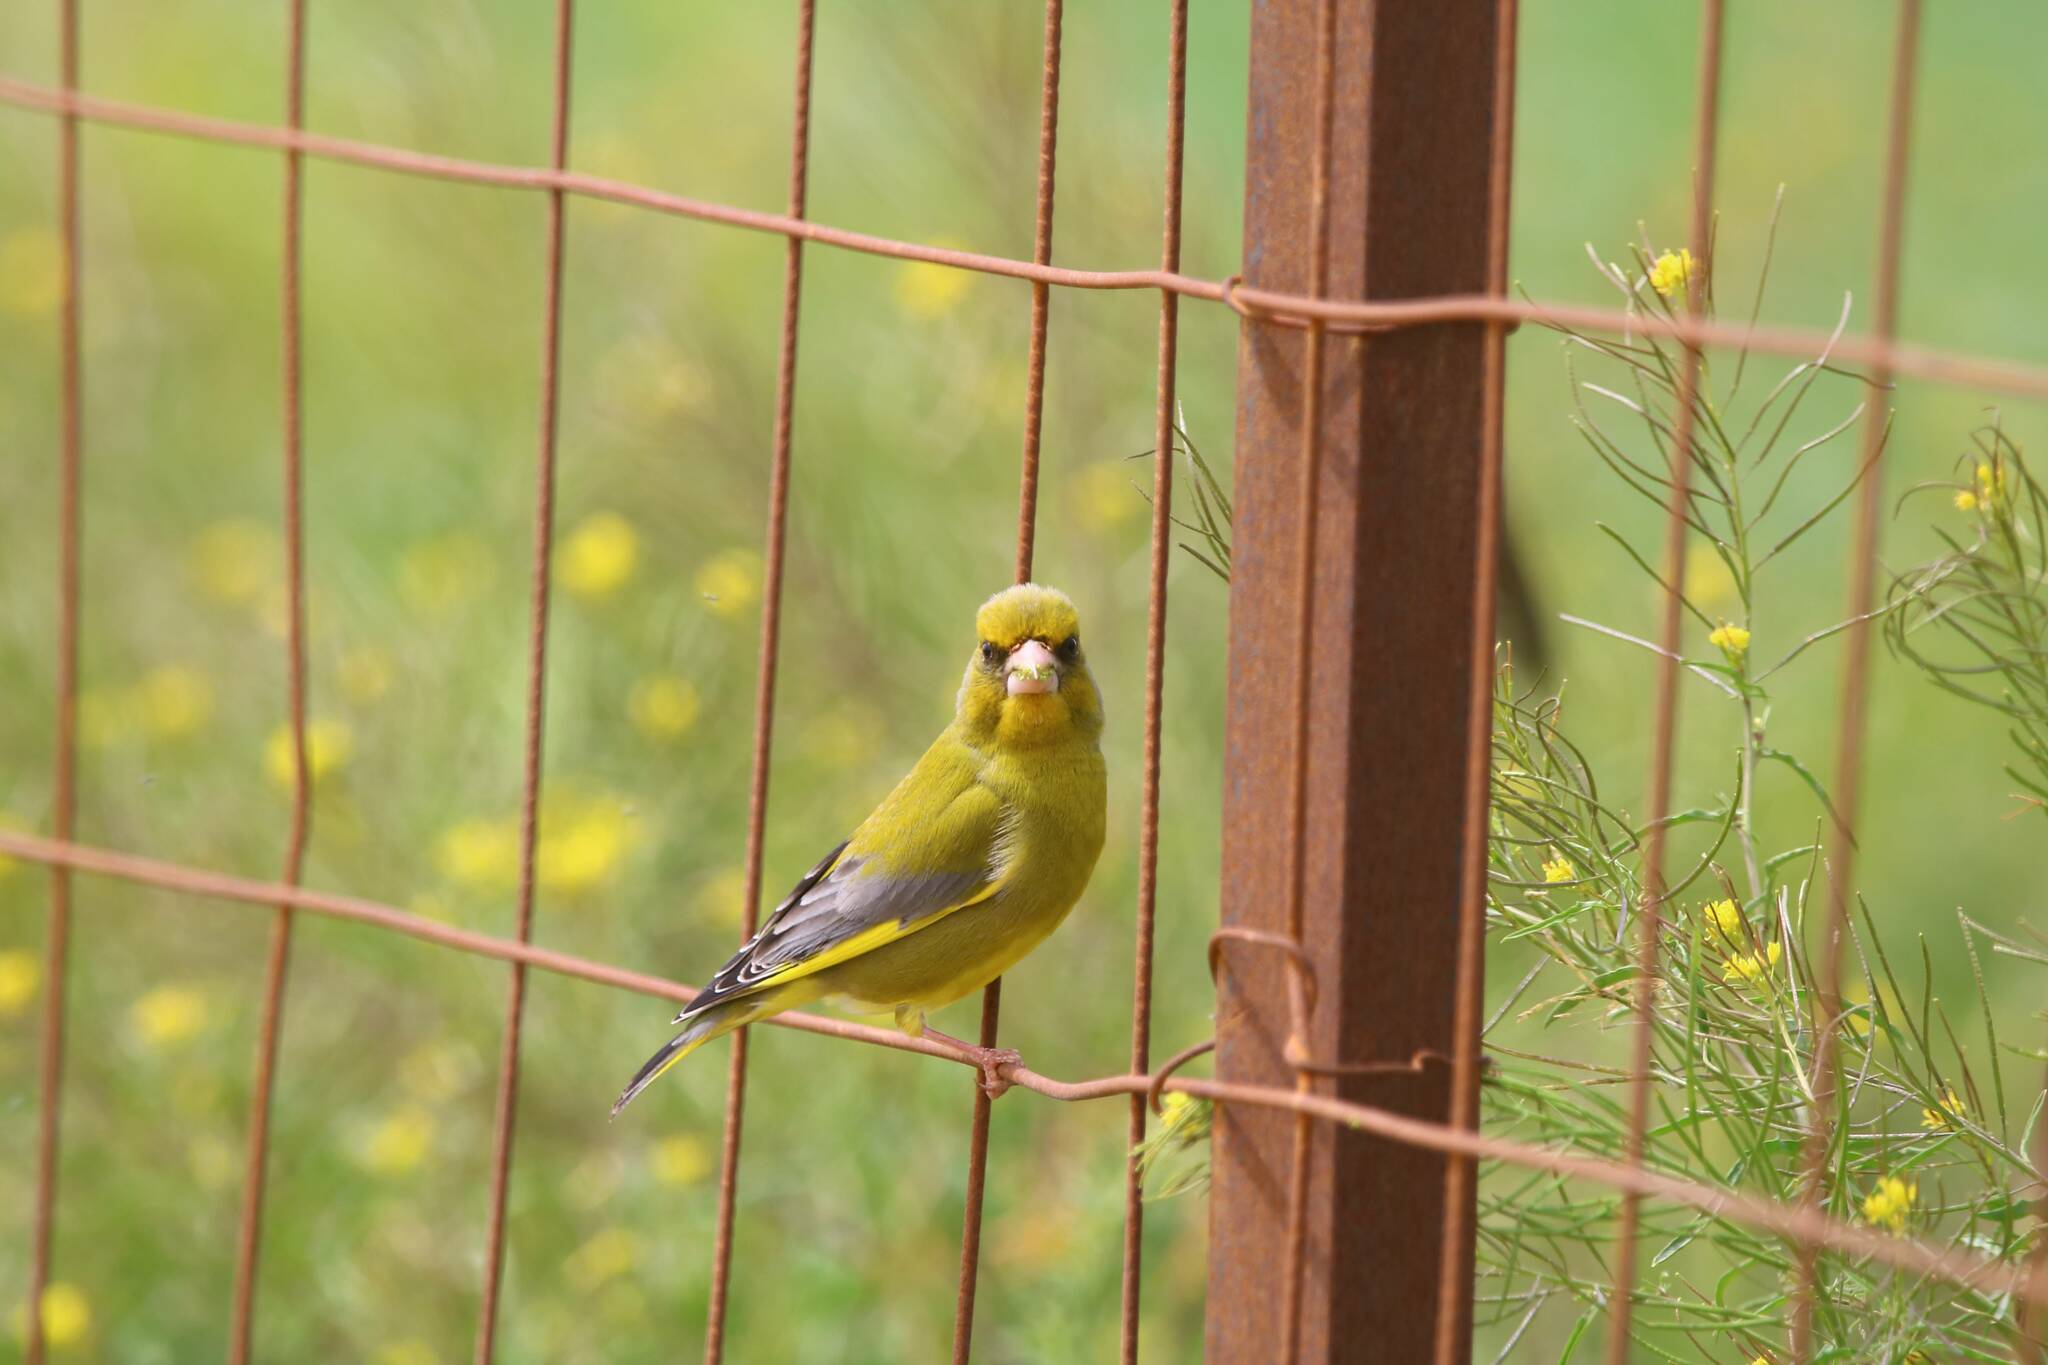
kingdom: Plantae
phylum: Tracheophyta
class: Liliopsida
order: Poales
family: Poaceae
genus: Chloris
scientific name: Chloris chloris
